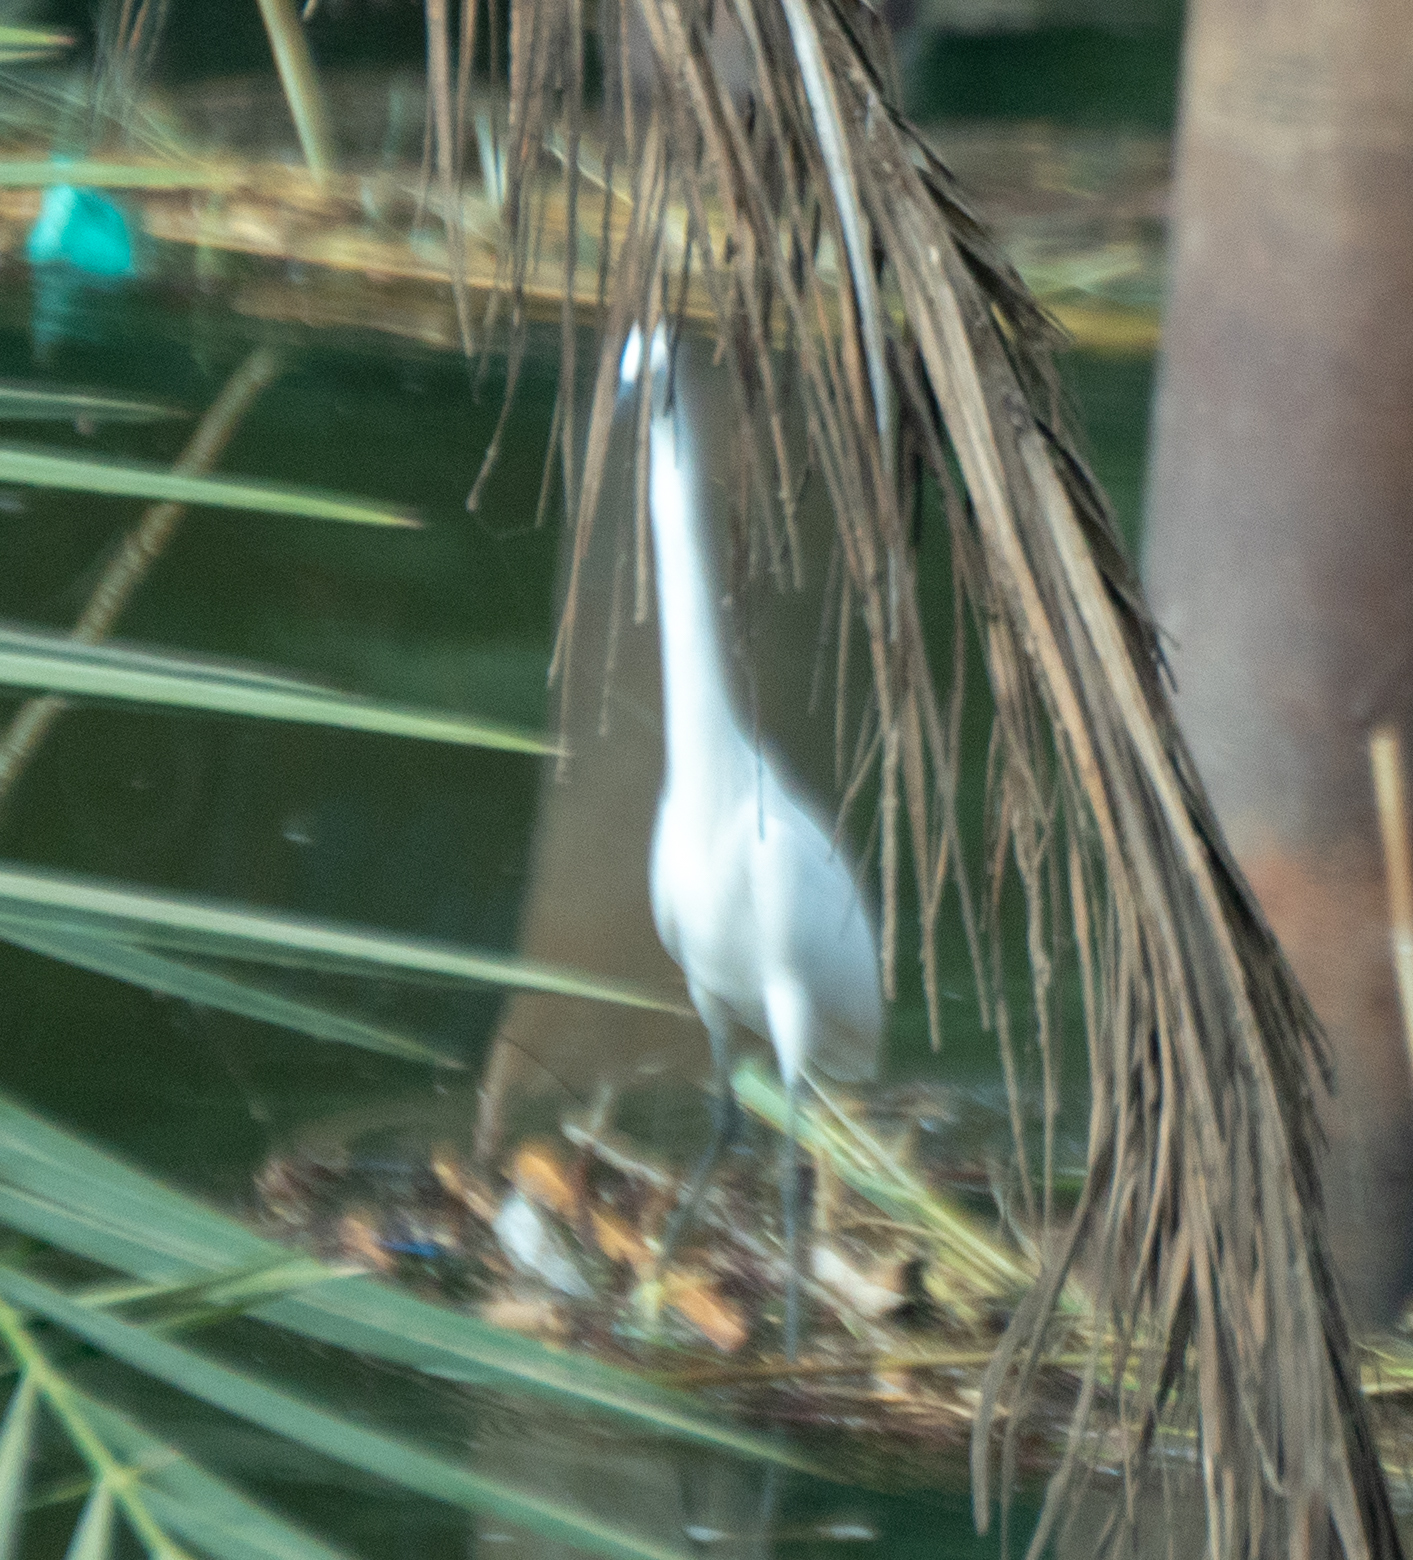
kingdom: Animalia
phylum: Chordata
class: Aves
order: Pelecaniformes
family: Ardeidae
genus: Egretta
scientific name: Egretta garzetta
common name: Little egret
